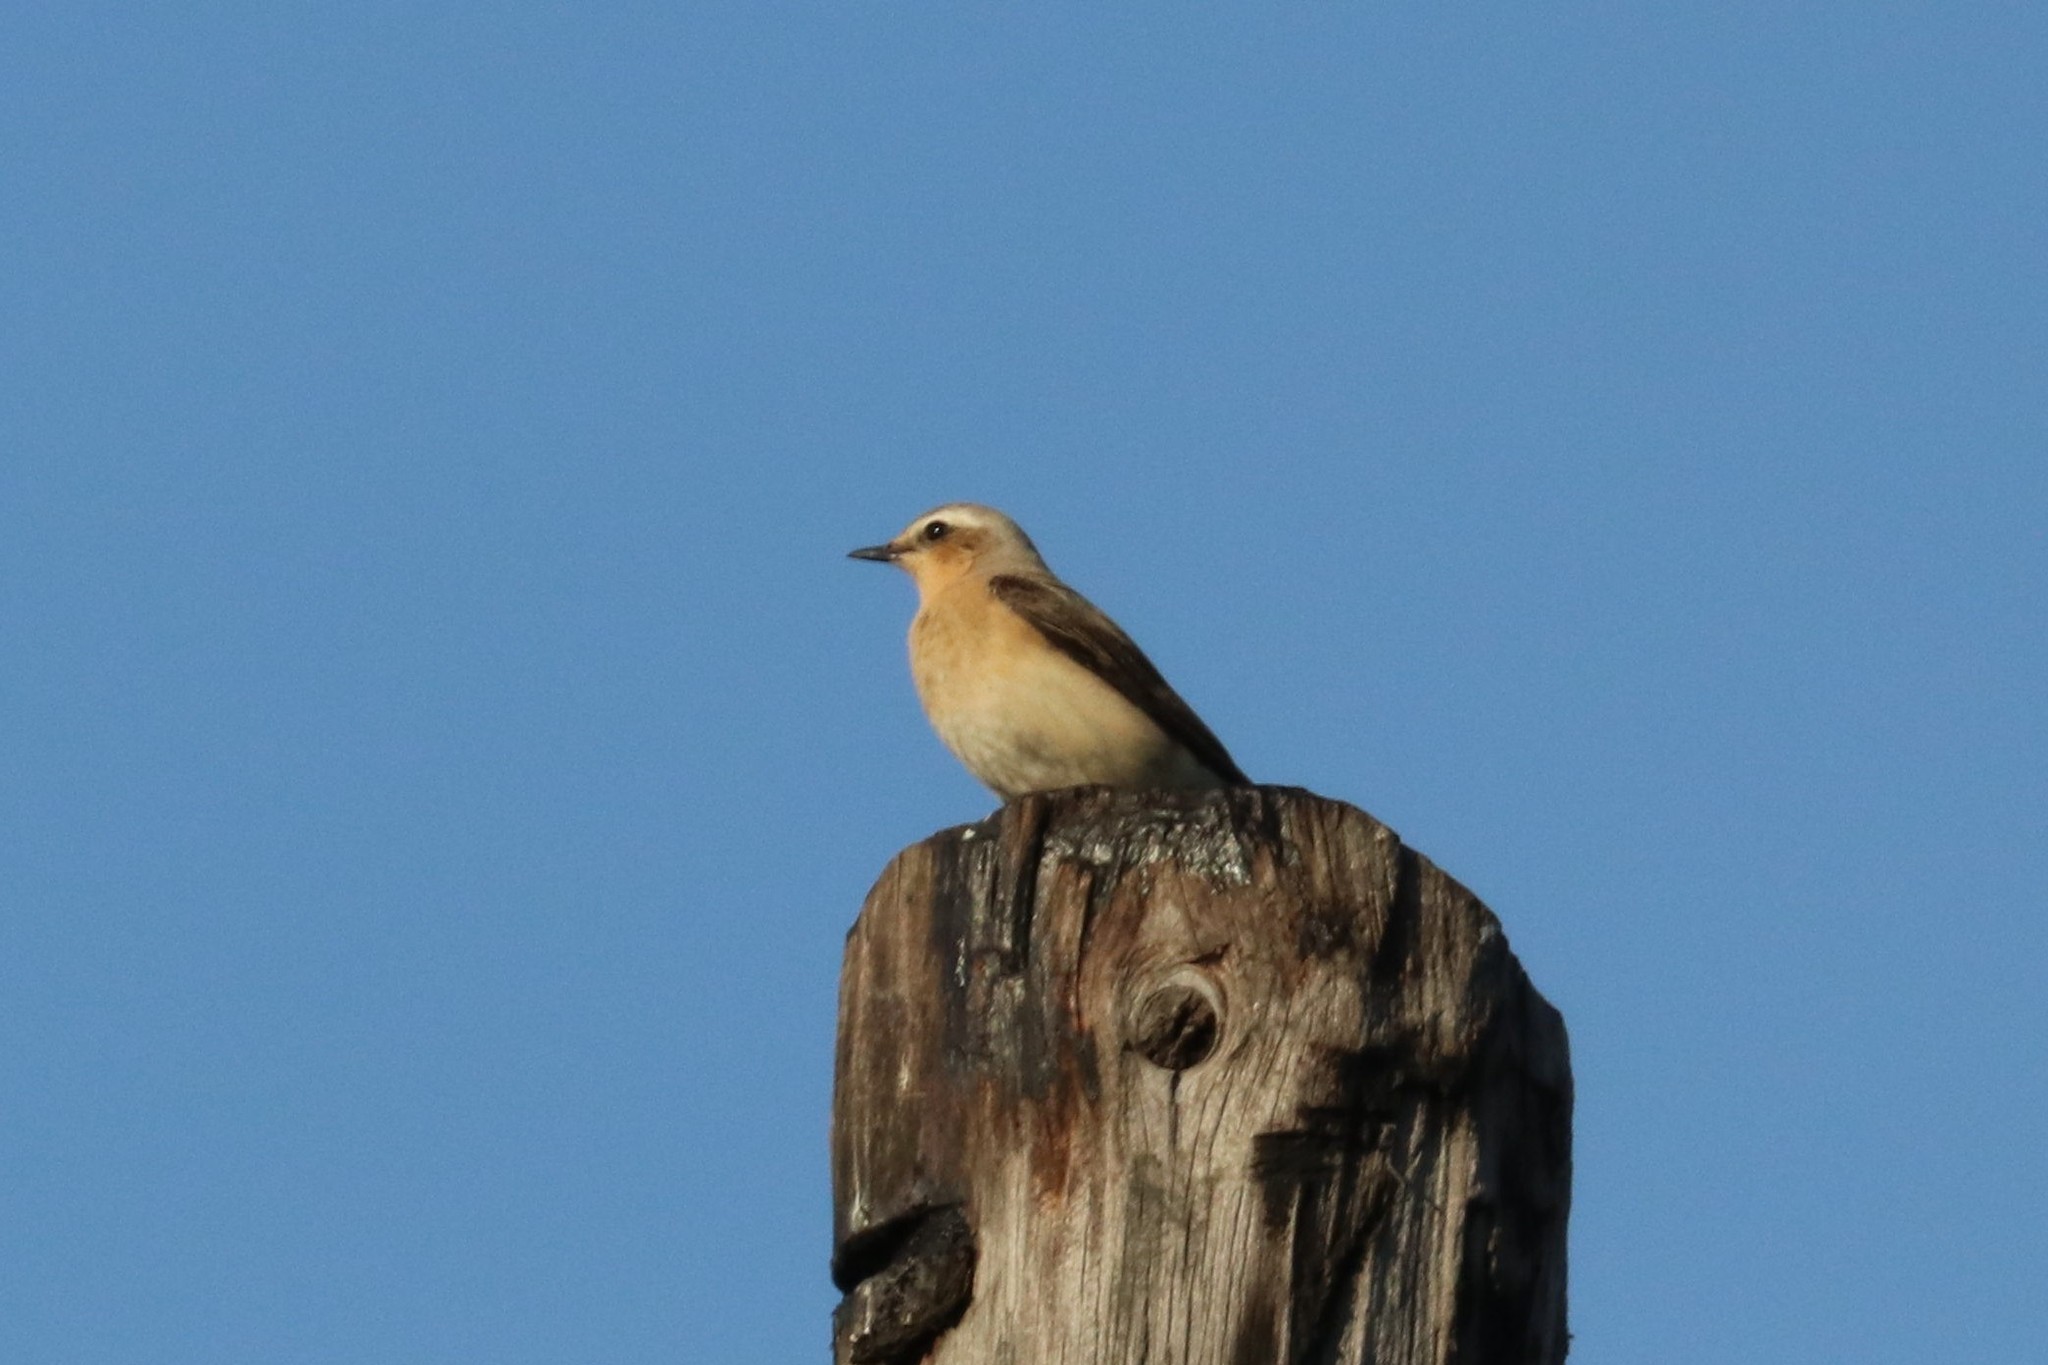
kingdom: Animalia
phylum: Chordata
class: Aves
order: Passeriformes
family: Muscicapidae
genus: Oenanthe
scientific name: Oenanthe oenanthe
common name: Northern wheatear
